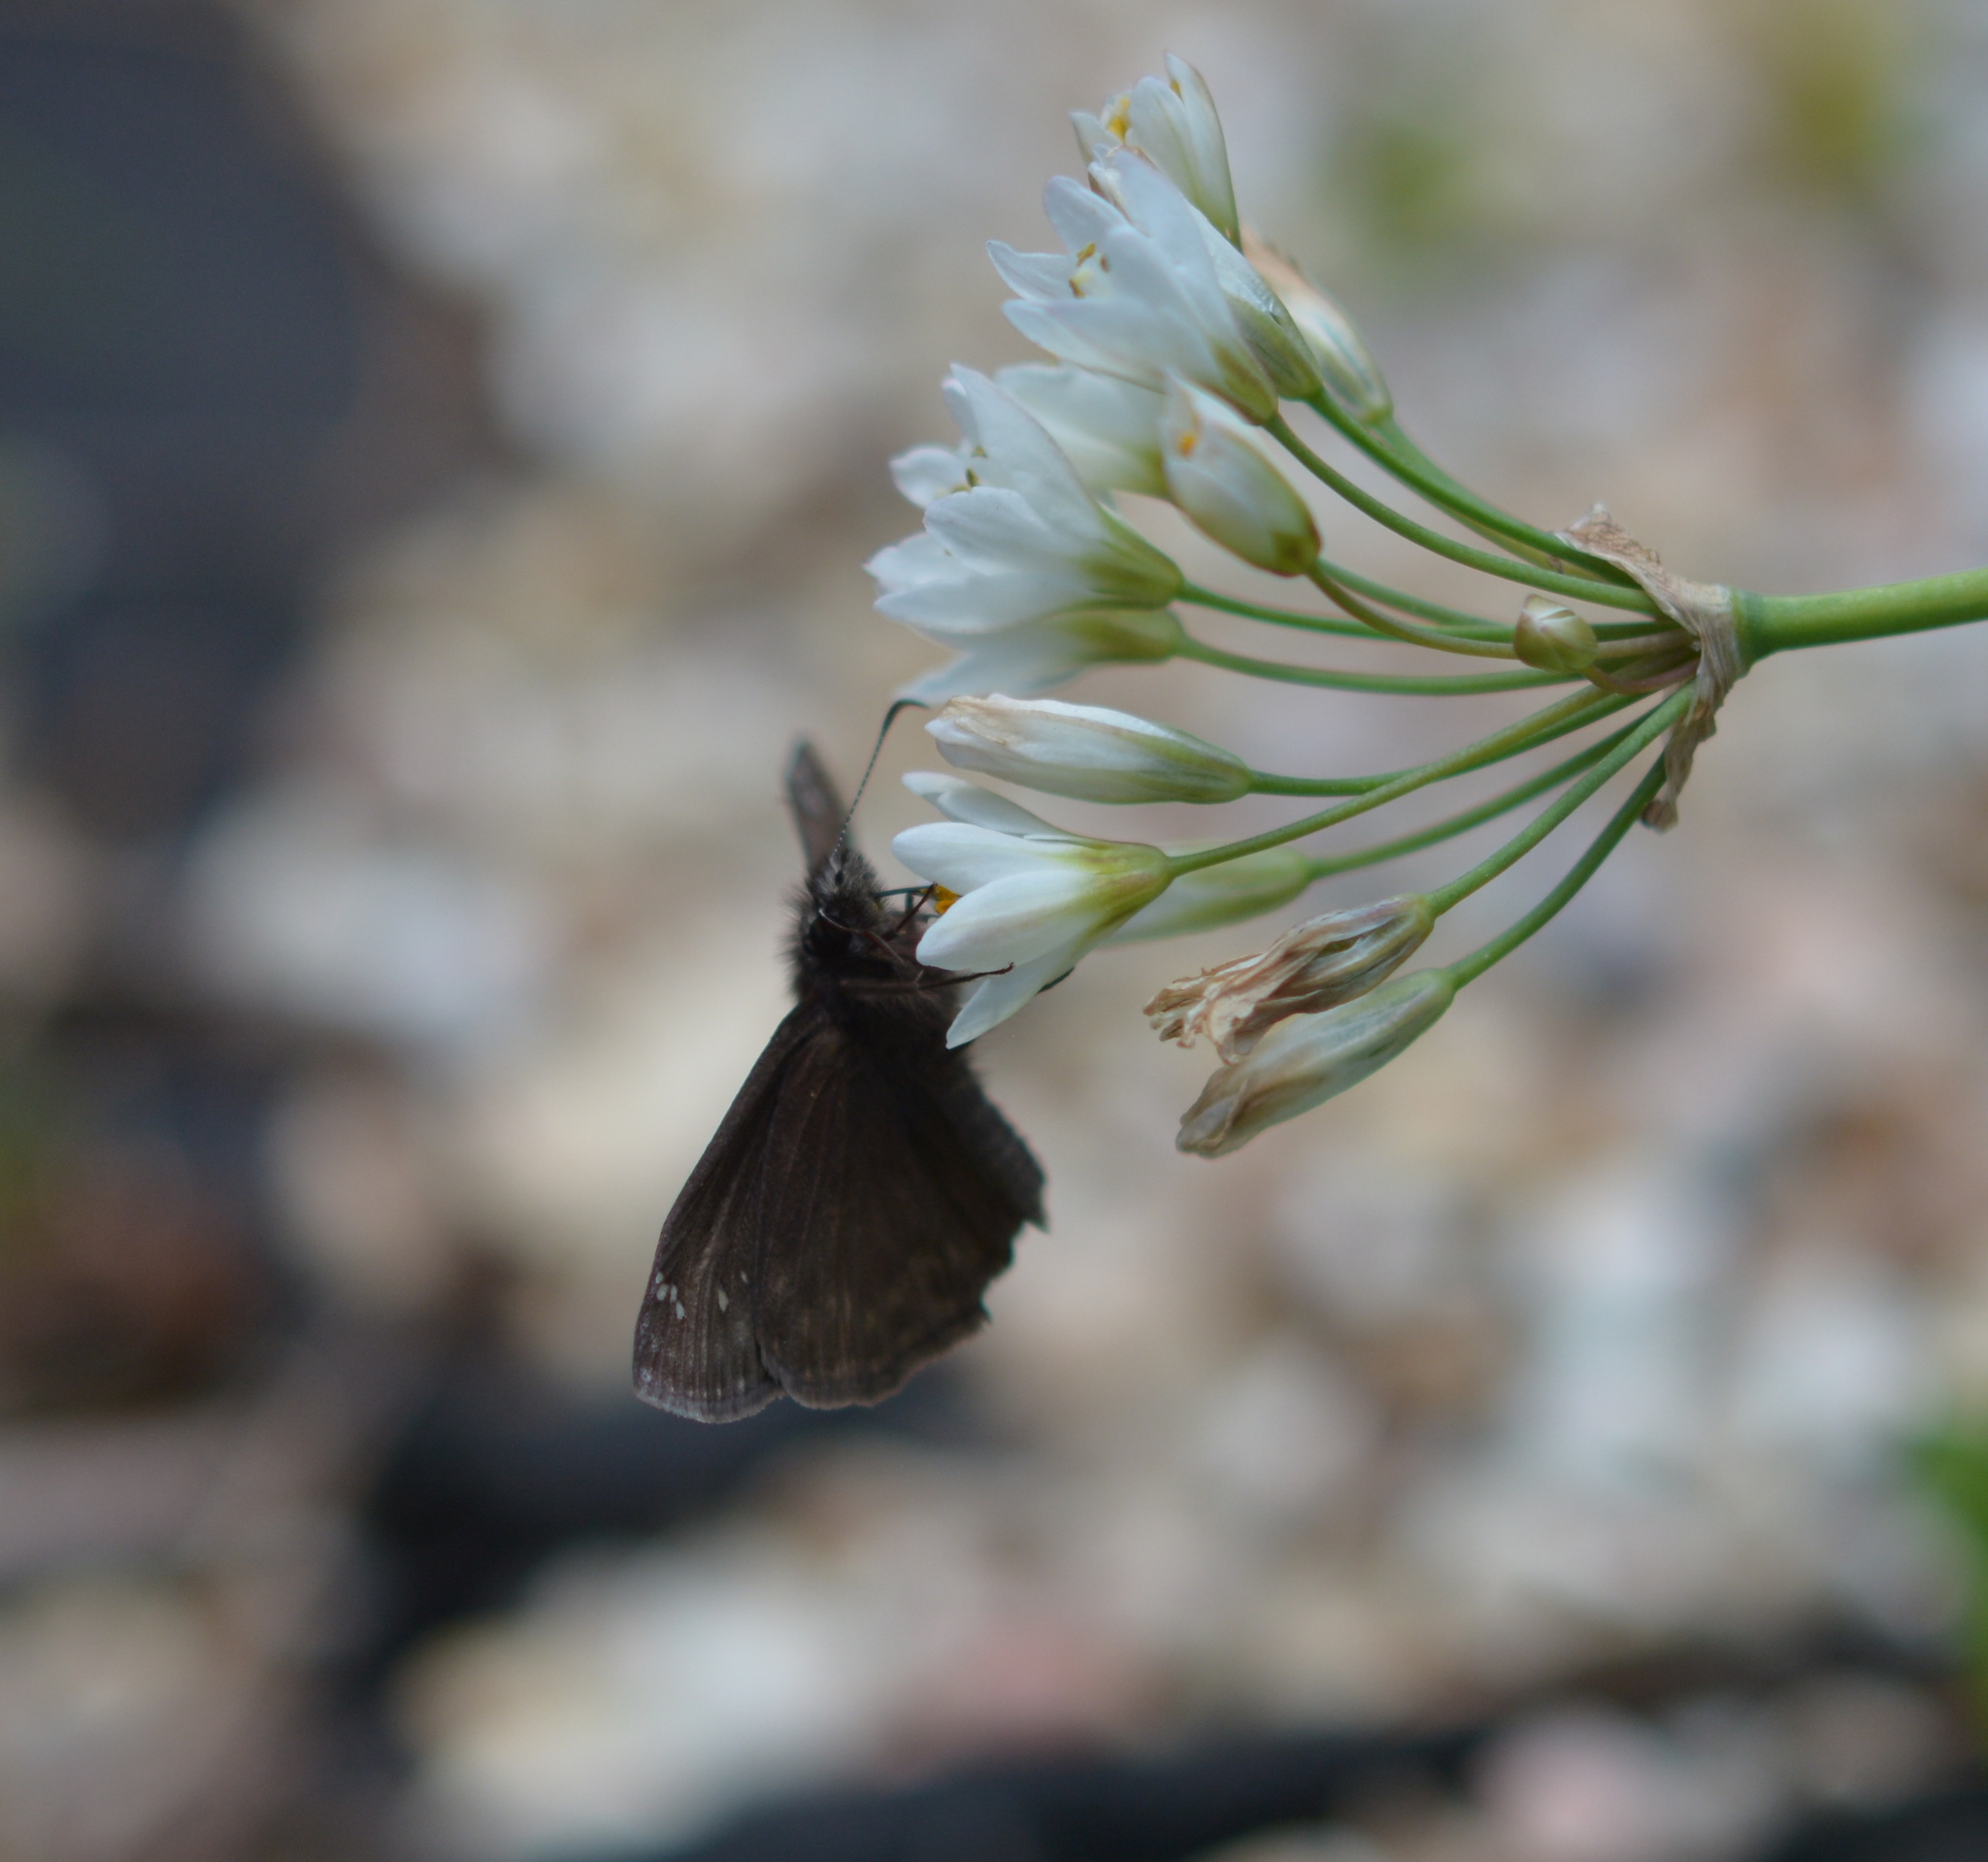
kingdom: Animalia
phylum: Arthropoda
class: Insecta
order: Lepidoptera
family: Hesperiidae
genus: Erynnis
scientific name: Erynnis horatius
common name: Horace's duskywing
